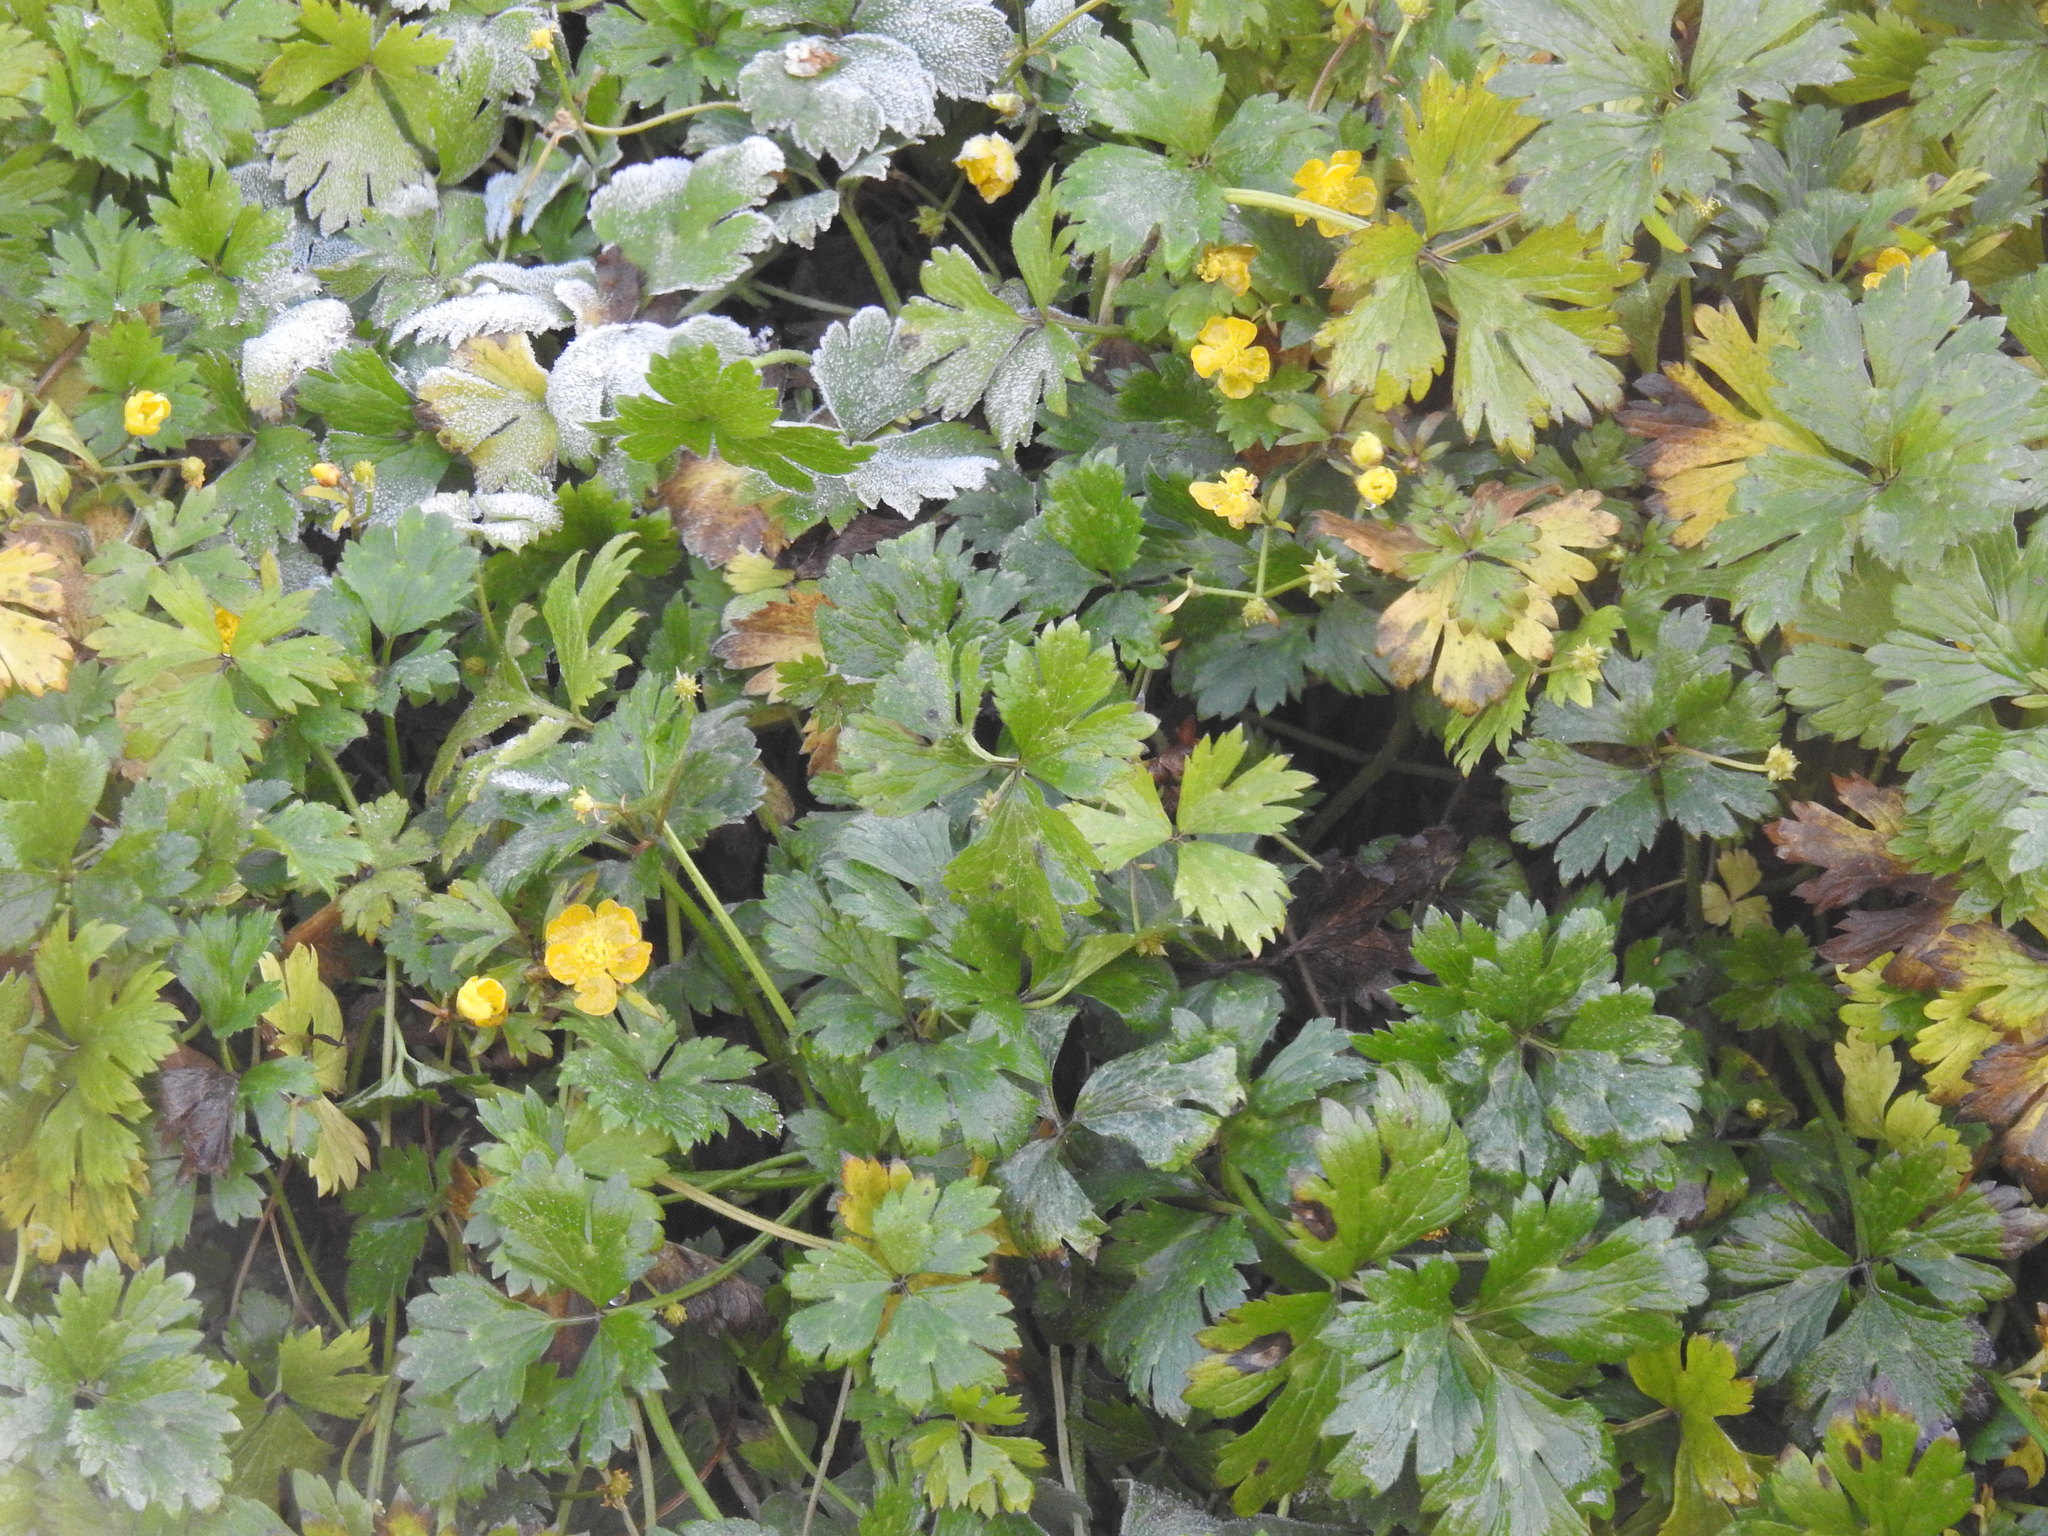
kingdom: Plantae
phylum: Tracheophyta
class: Magnoliopsida
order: Ranunculales
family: Ranunculaceae
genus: Ranunculus
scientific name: Ranunculus repens
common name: Creeping buttercup
